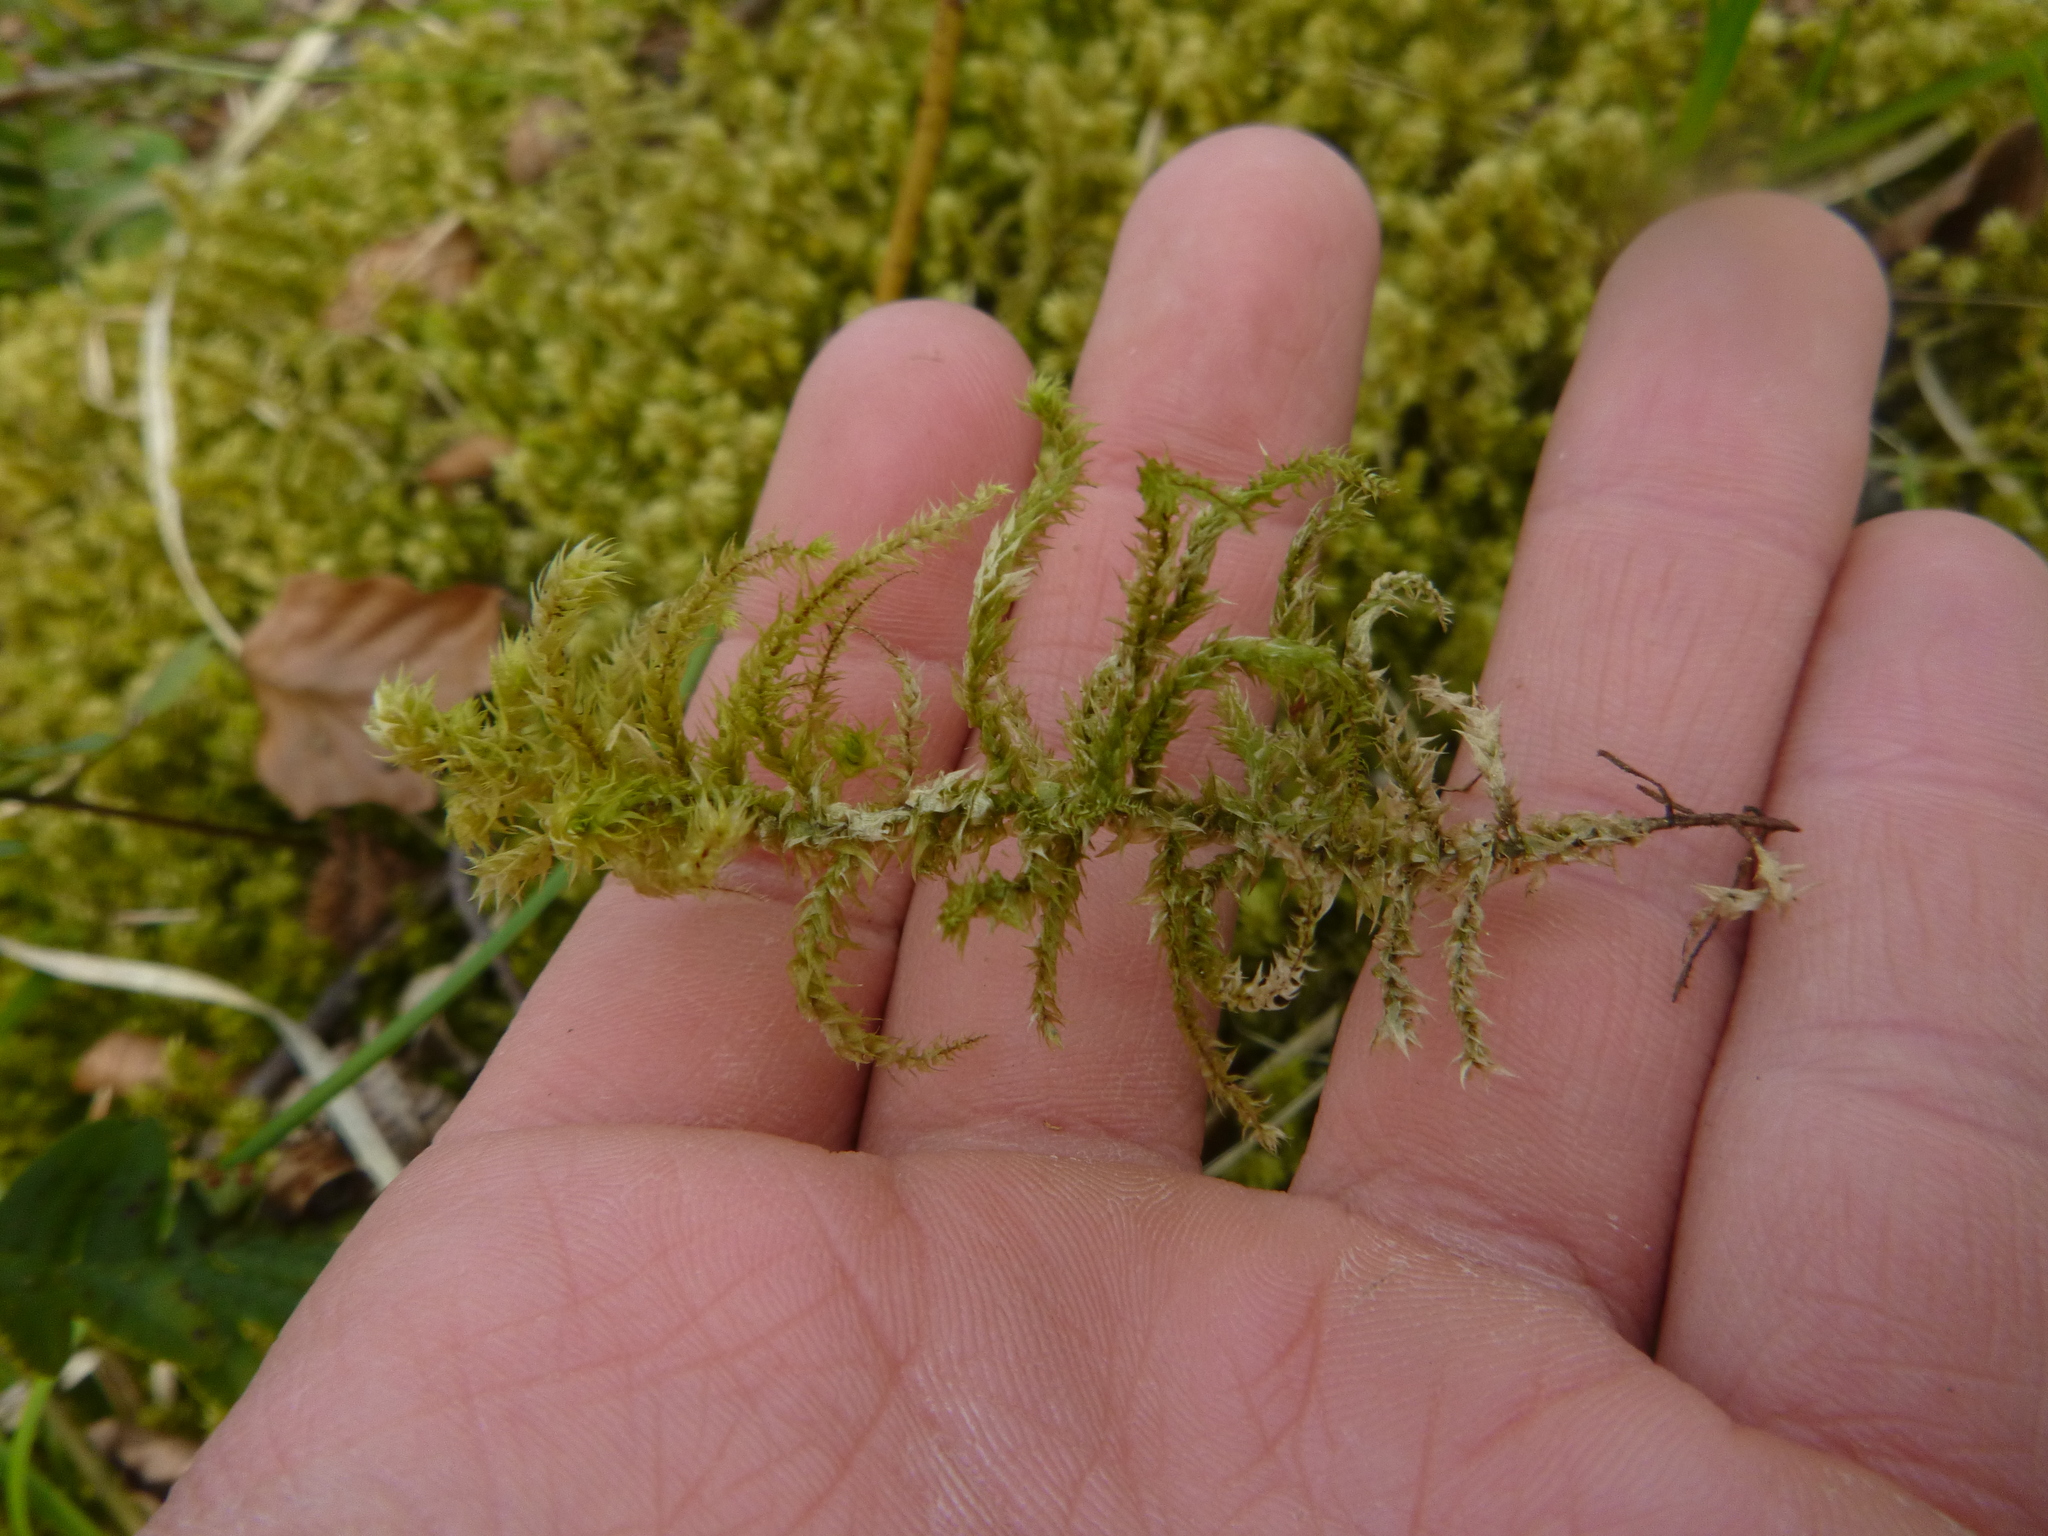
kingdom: Plantae
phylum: Bryophyta
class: Bryopsida
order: Hypnales
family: Hylocomiaceae
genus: Hylocomiadelphus
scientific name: Hylocomiadelphus triquetrus
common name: Rough goose neck moss
